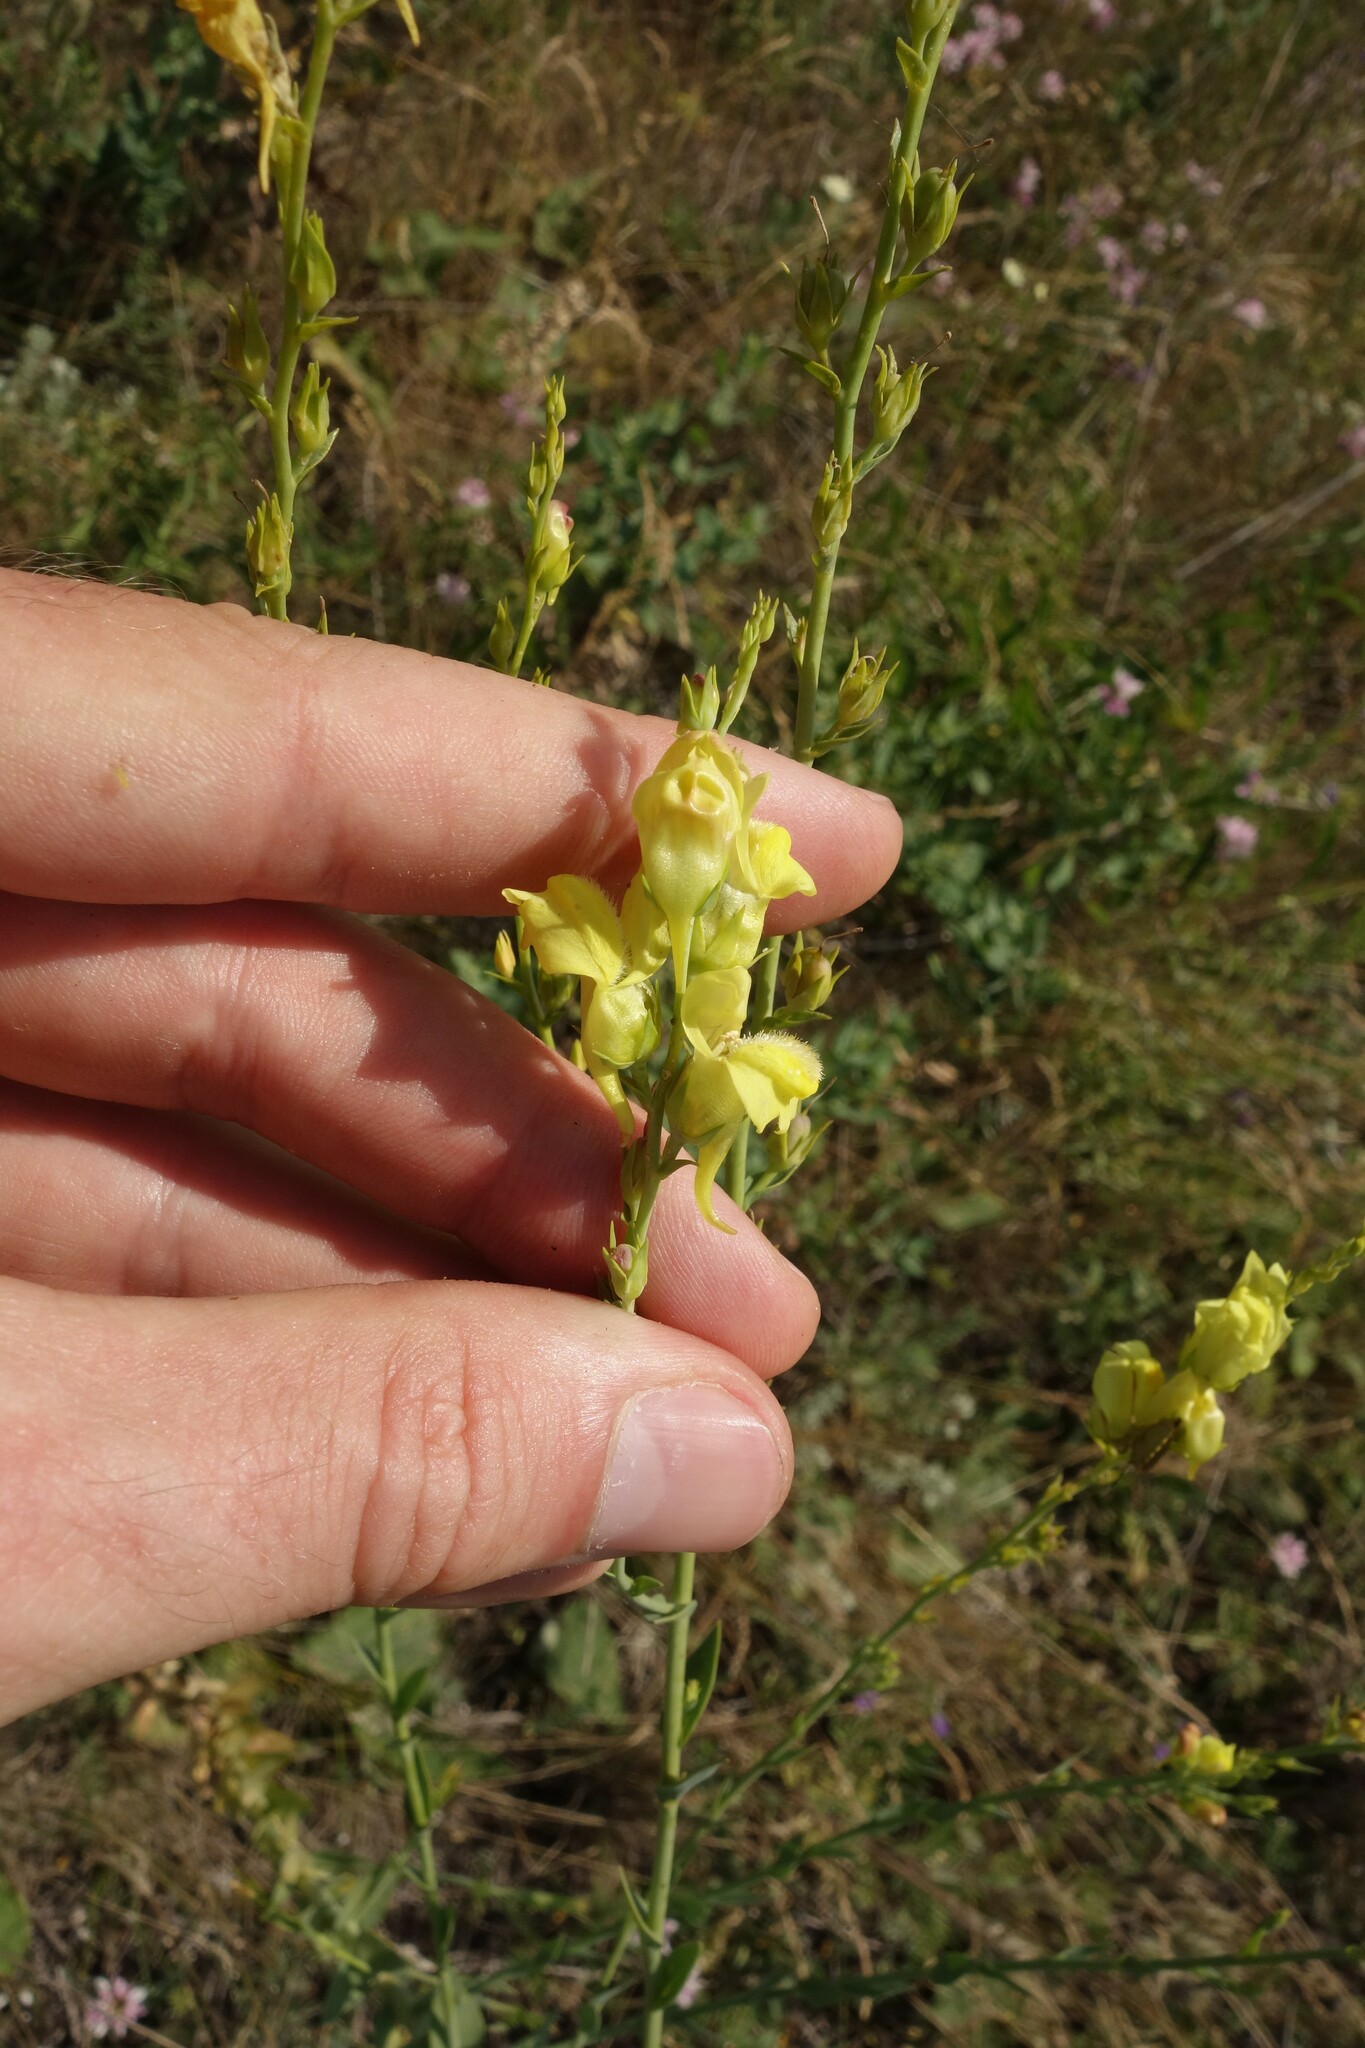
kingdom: Plantae
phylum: Tracheophyta
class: Magnoliopsida
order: Lamiales
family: Plantaginaceae
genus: Linaria
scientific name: Linaria genistifolia
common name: Broomleaf toadflax
